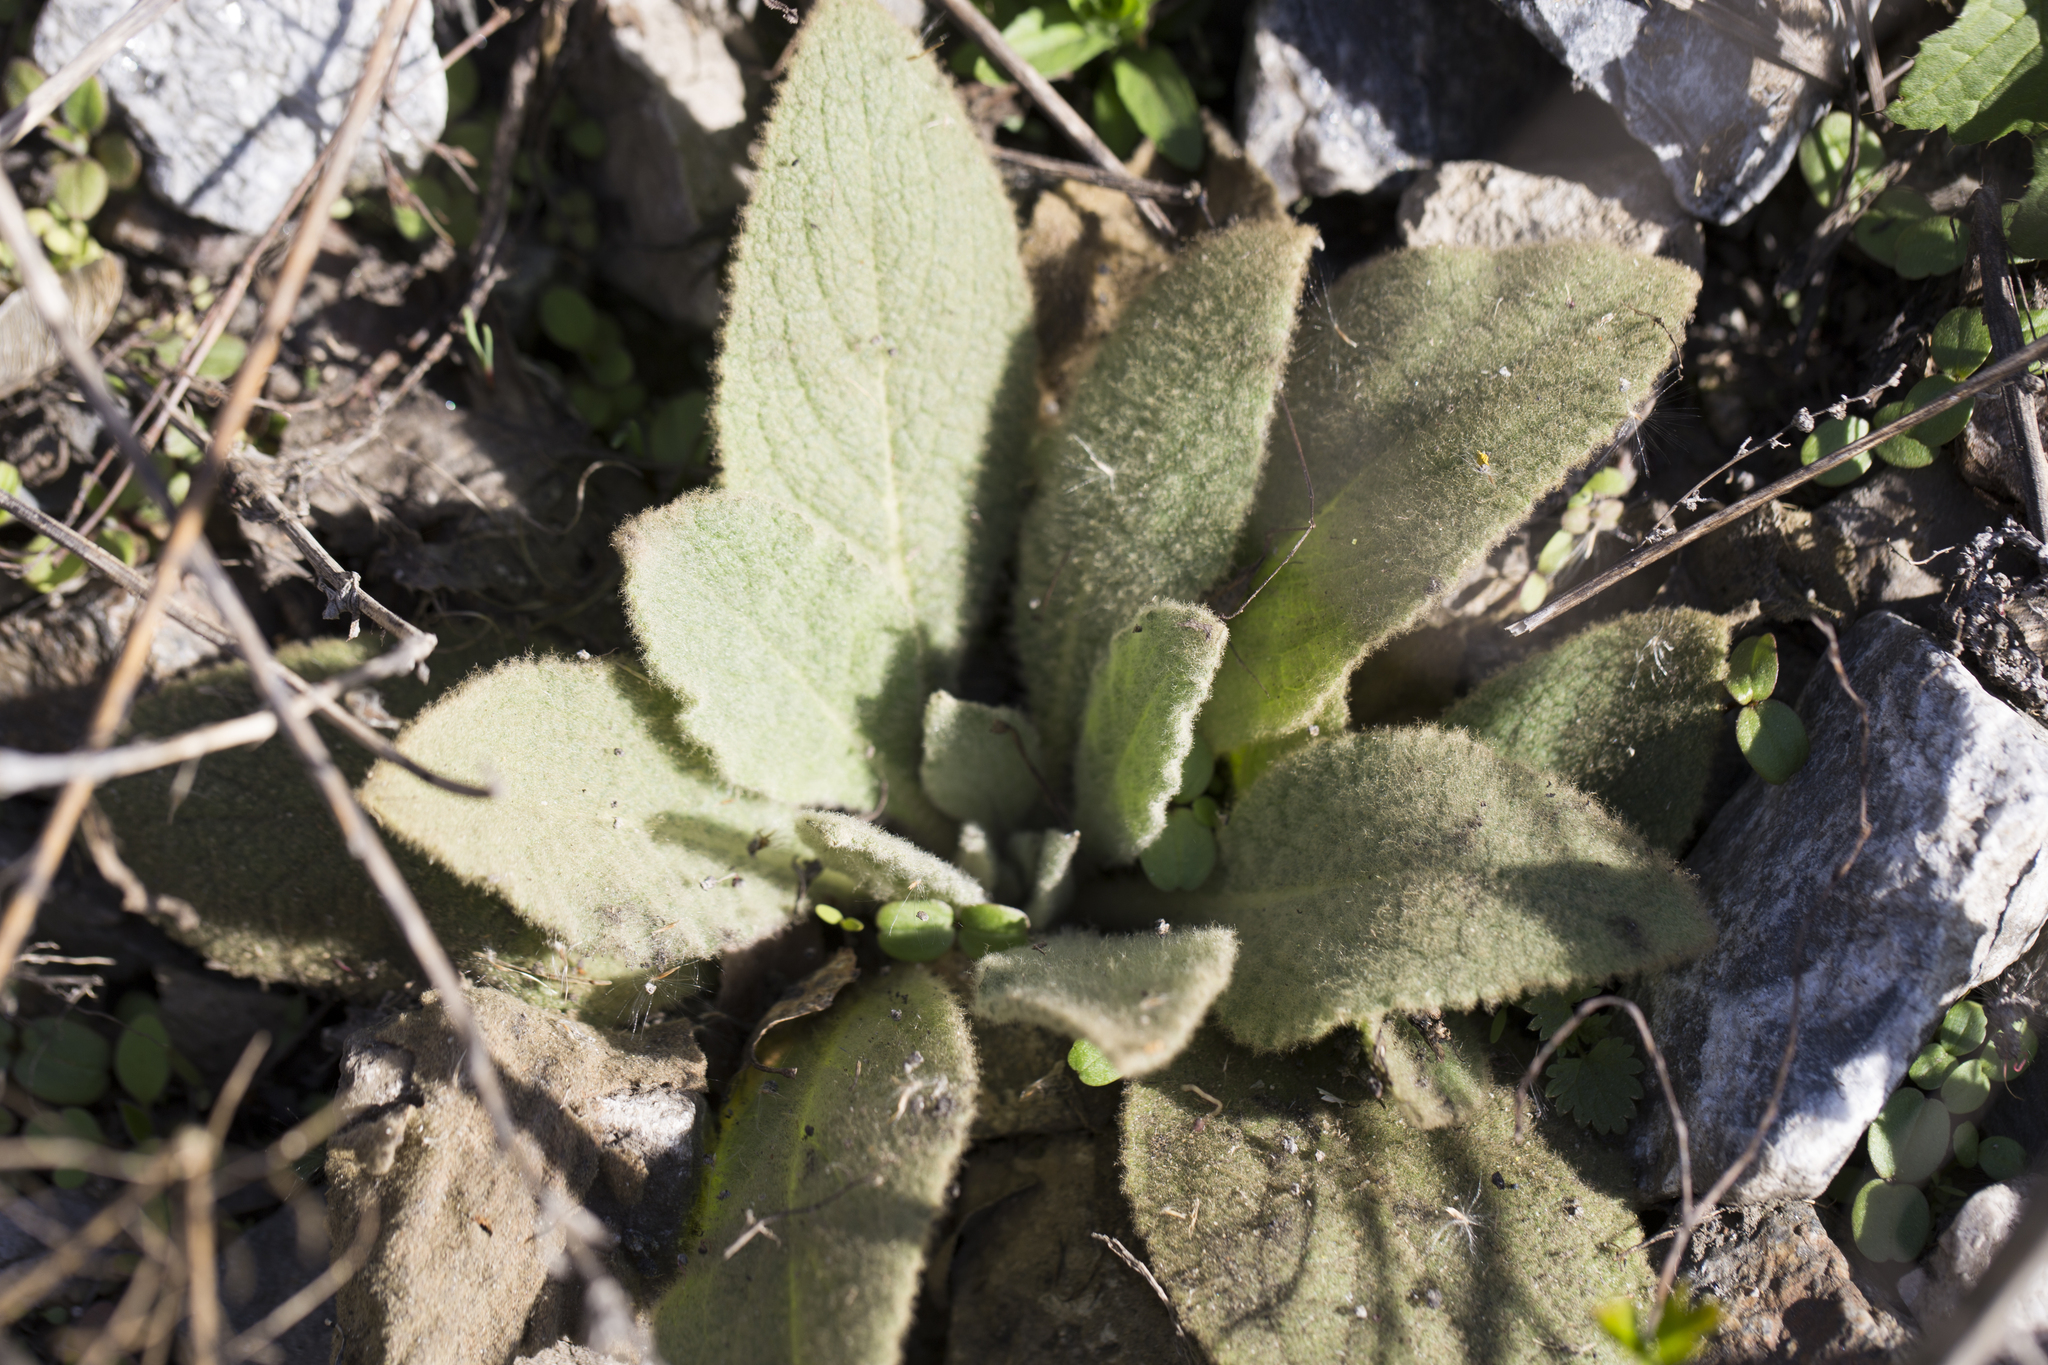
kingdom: Plantae
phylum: Tracheophyta
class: Magnoliopsida
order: Lamiales
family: Scrophulariaceae
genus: Verbascum
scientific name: Verbascum thapsus
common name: Common mullein
